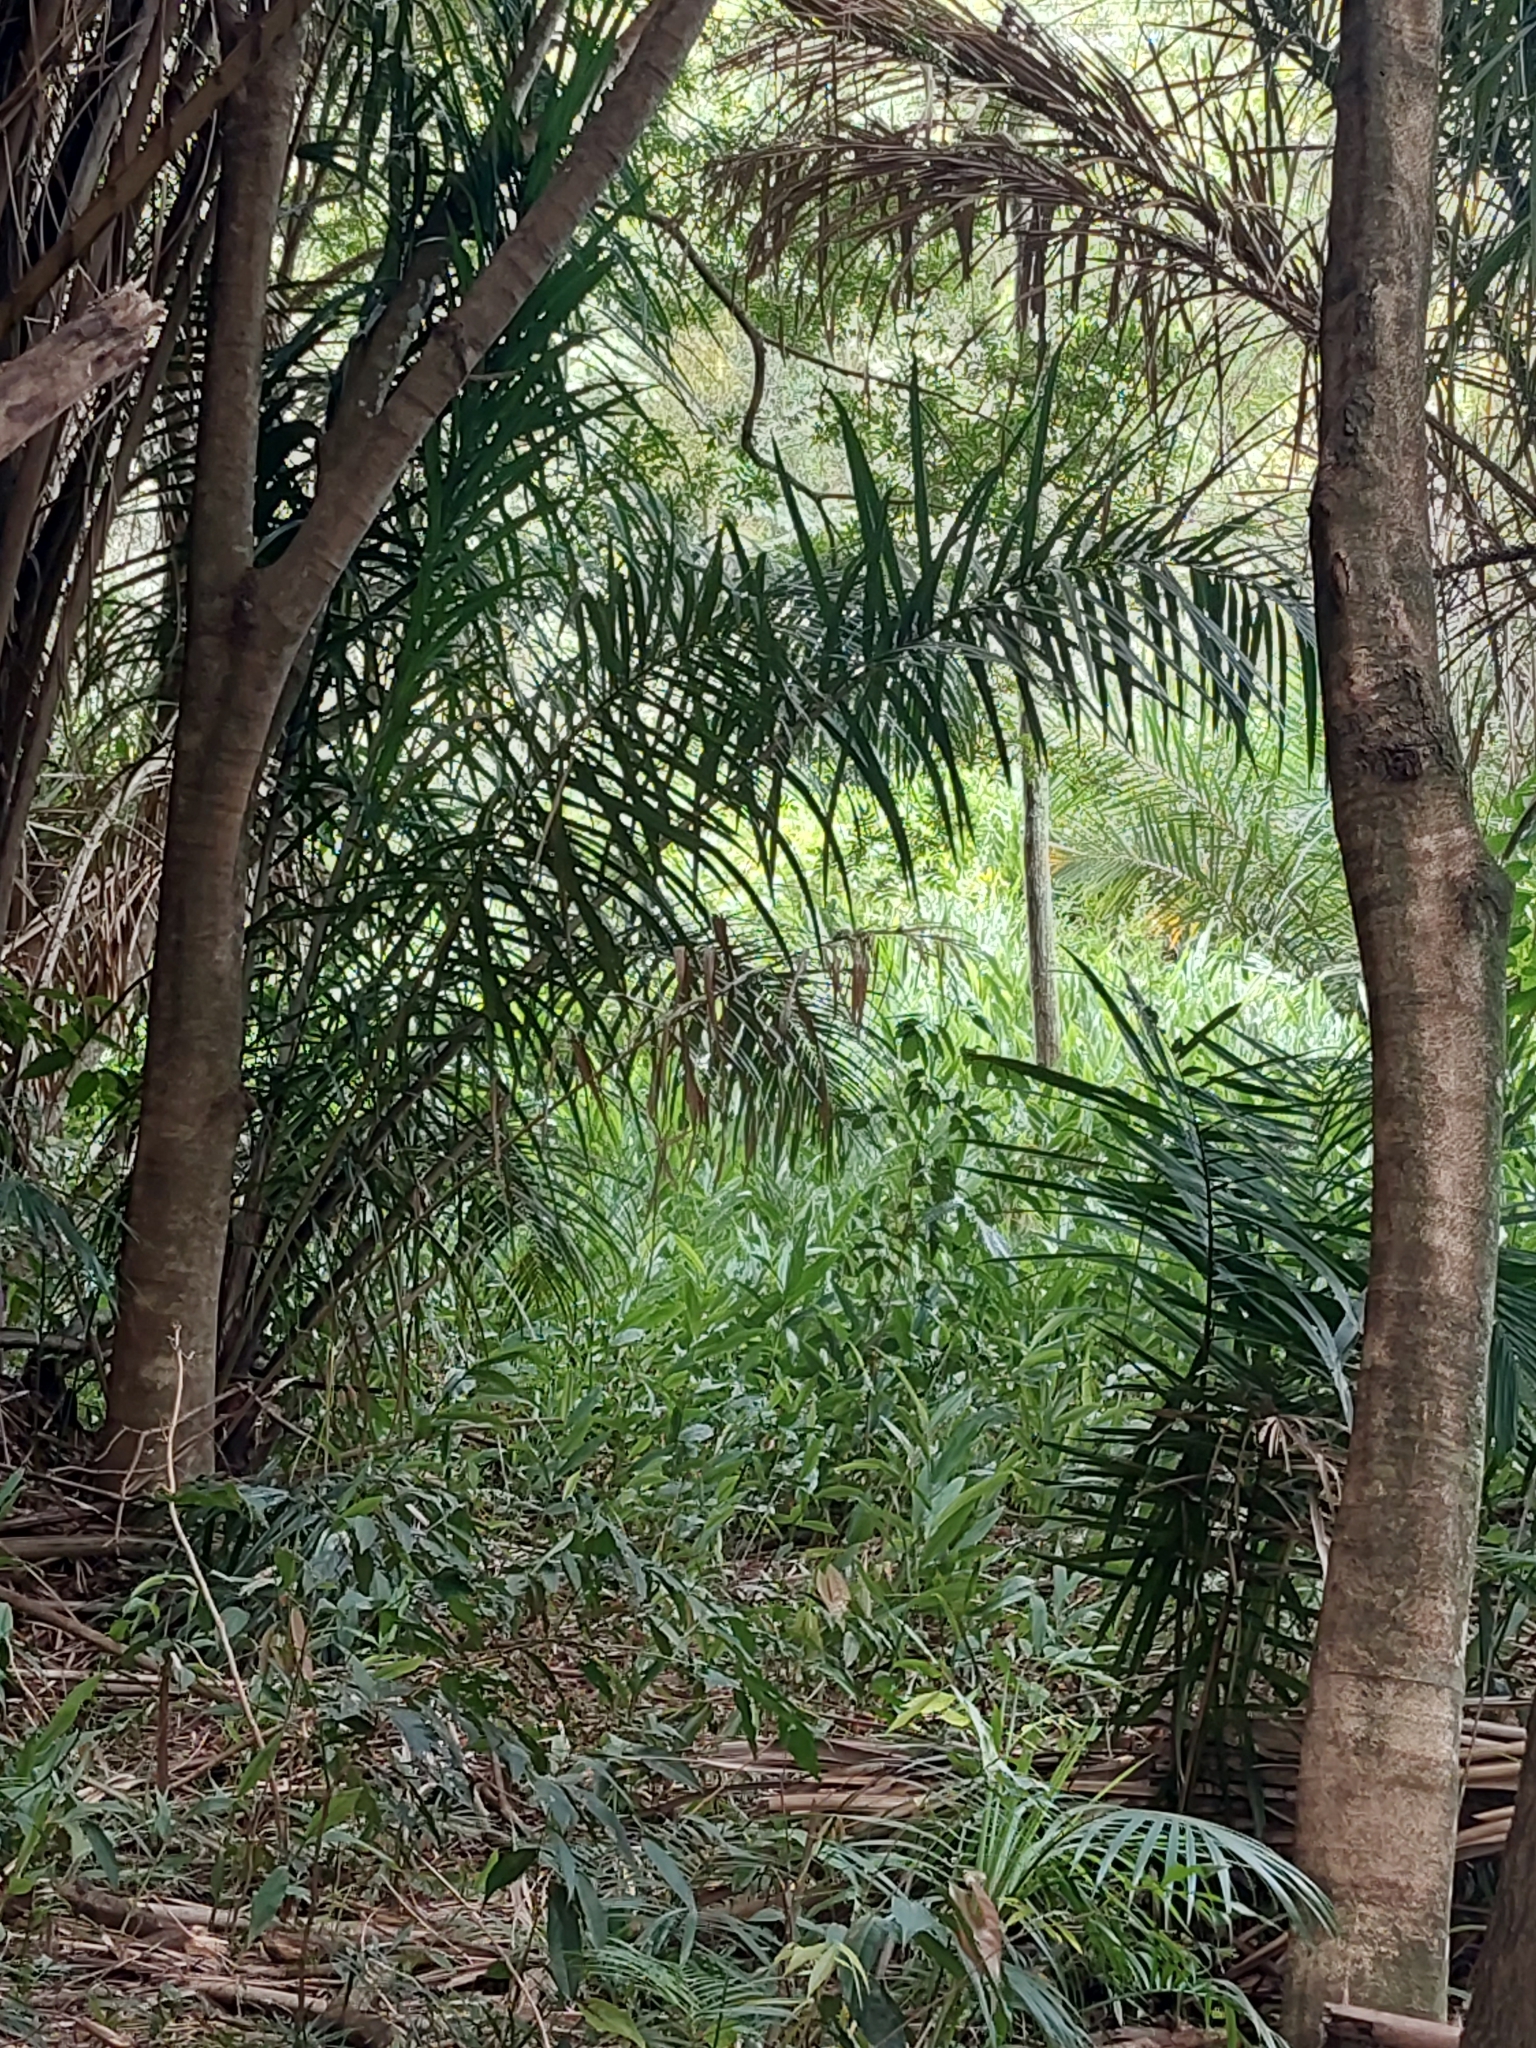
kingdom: Plantae
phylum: Tracheophyta
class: Liliopsida
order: Zingiberales
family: Zingiberaceae
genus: Hedychium
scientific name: Hedychium coronarium
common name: White garland-lily
